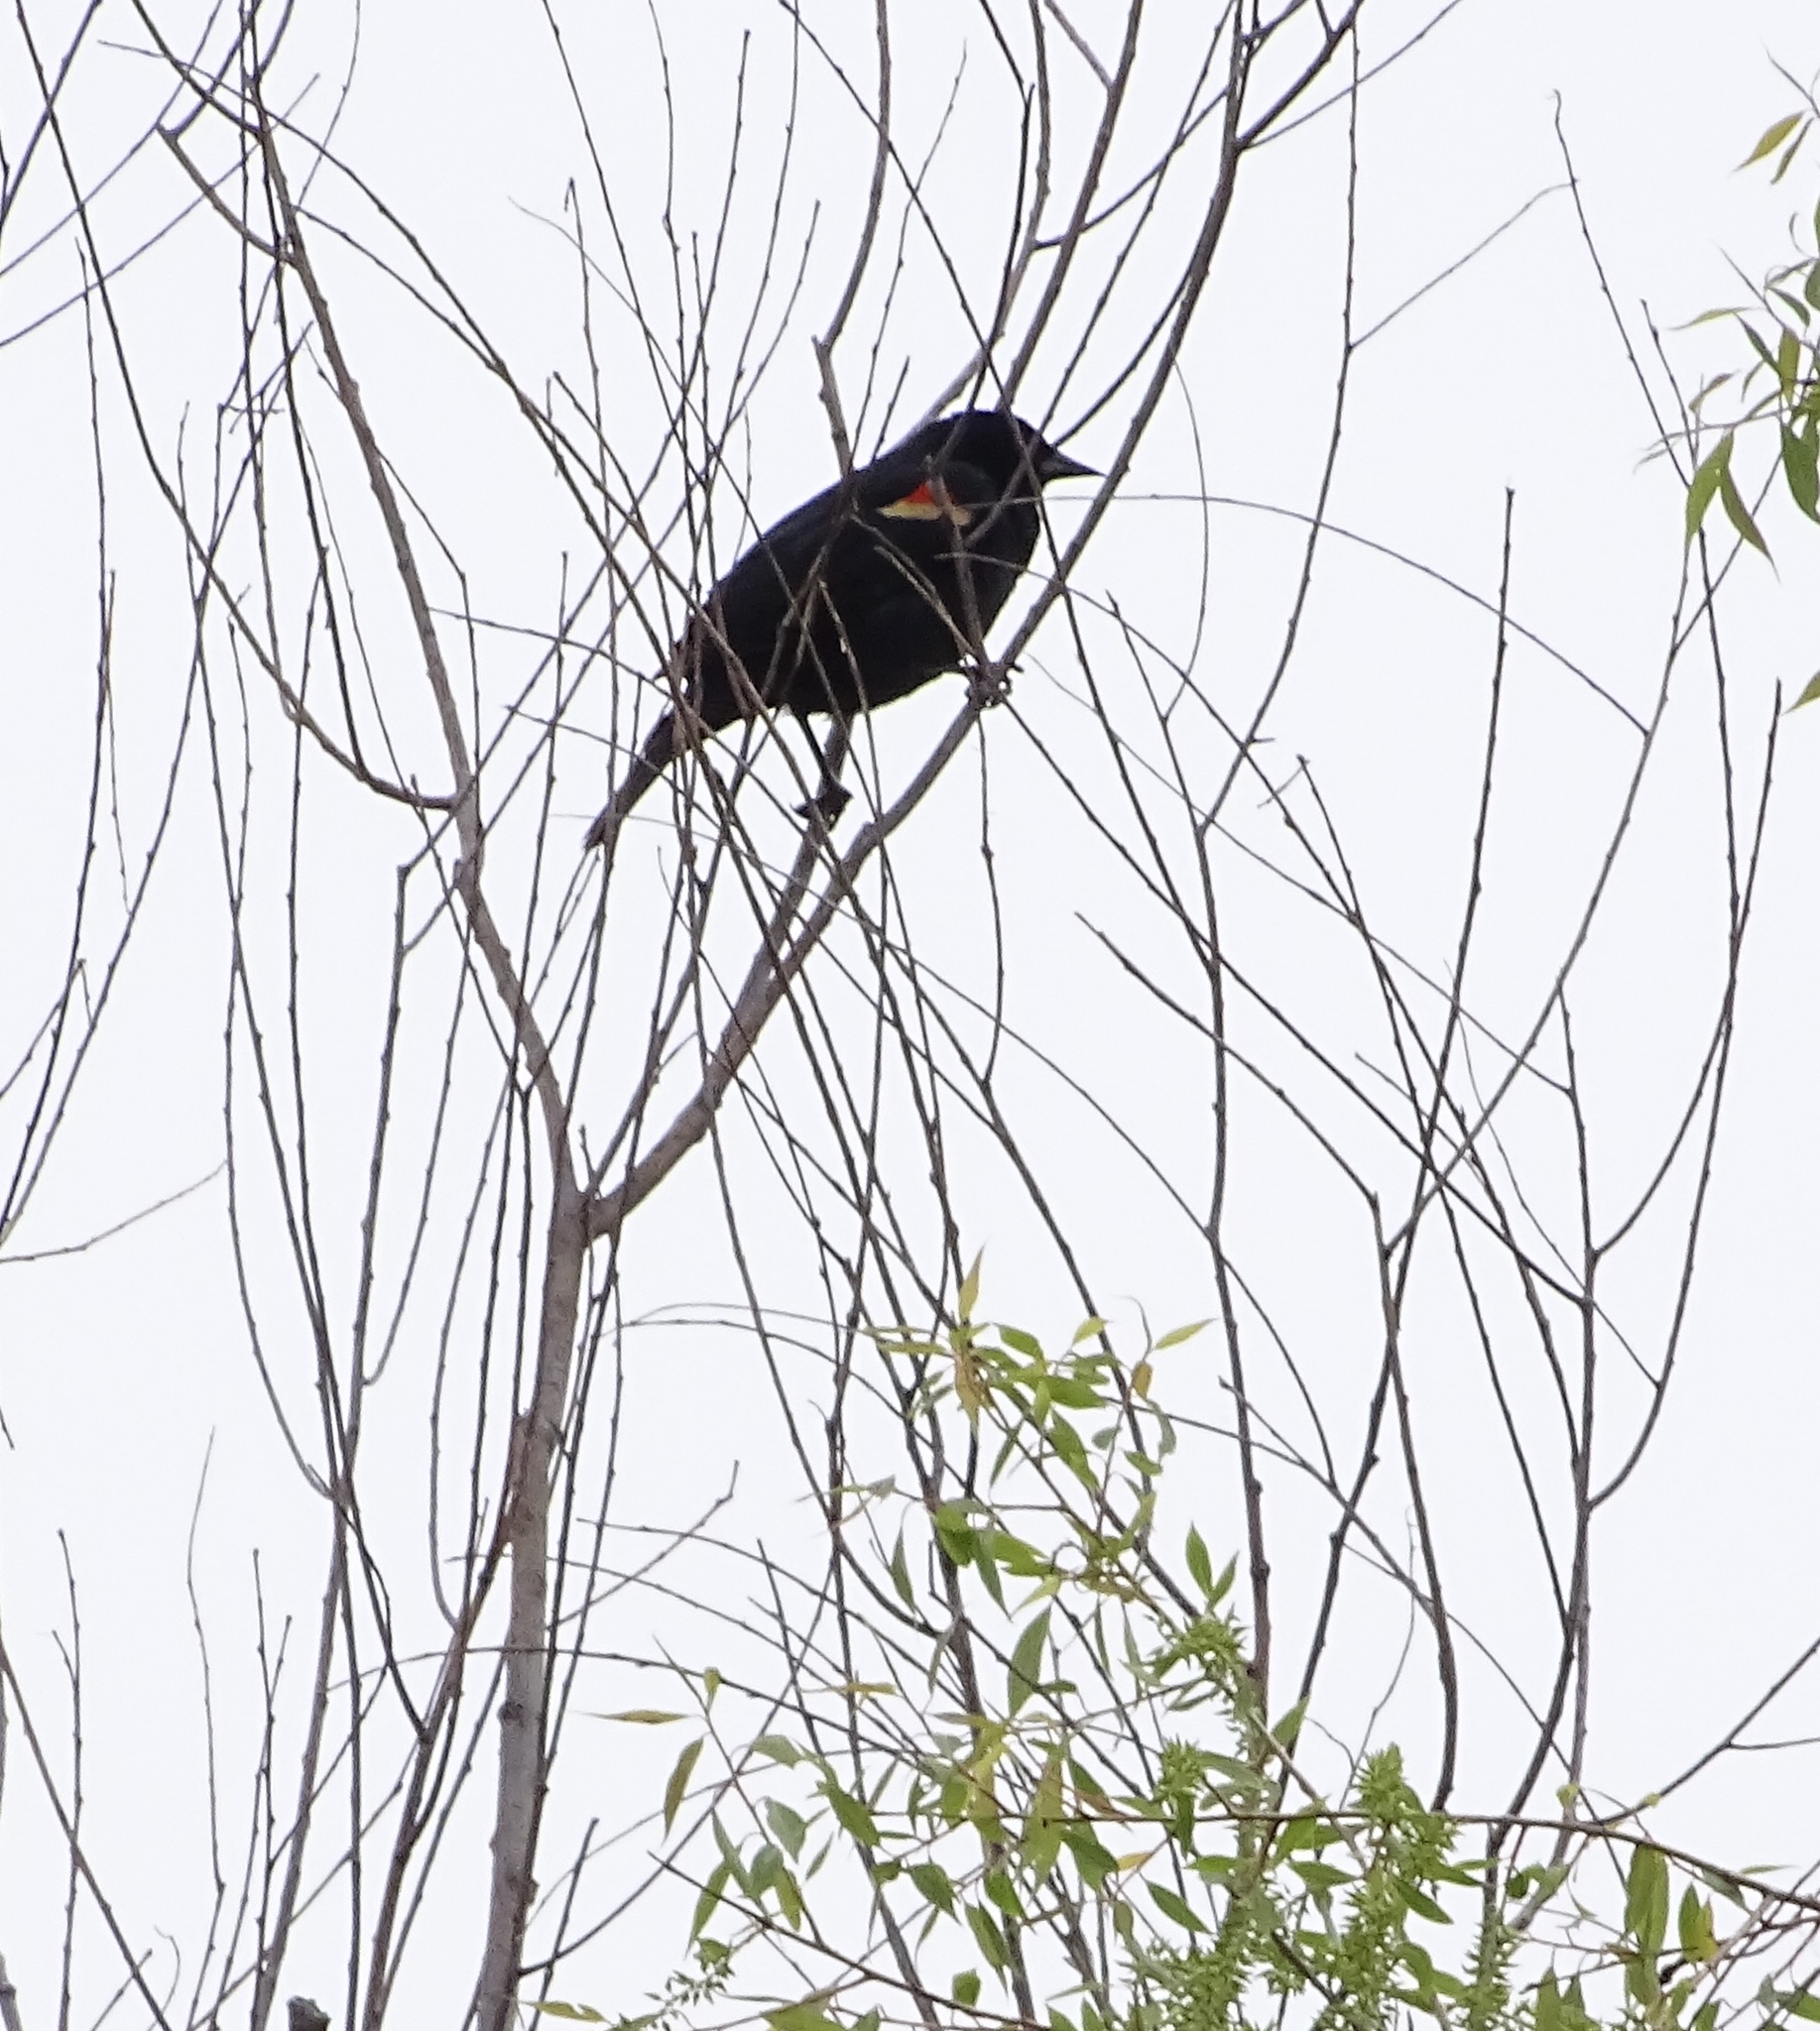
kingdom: Animalia
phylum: Chordata
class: Aves
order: Passeriformes
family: Icteridae
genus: Agelaius
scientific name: Agelaius phoeniceus
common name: Red-winged blackbird
